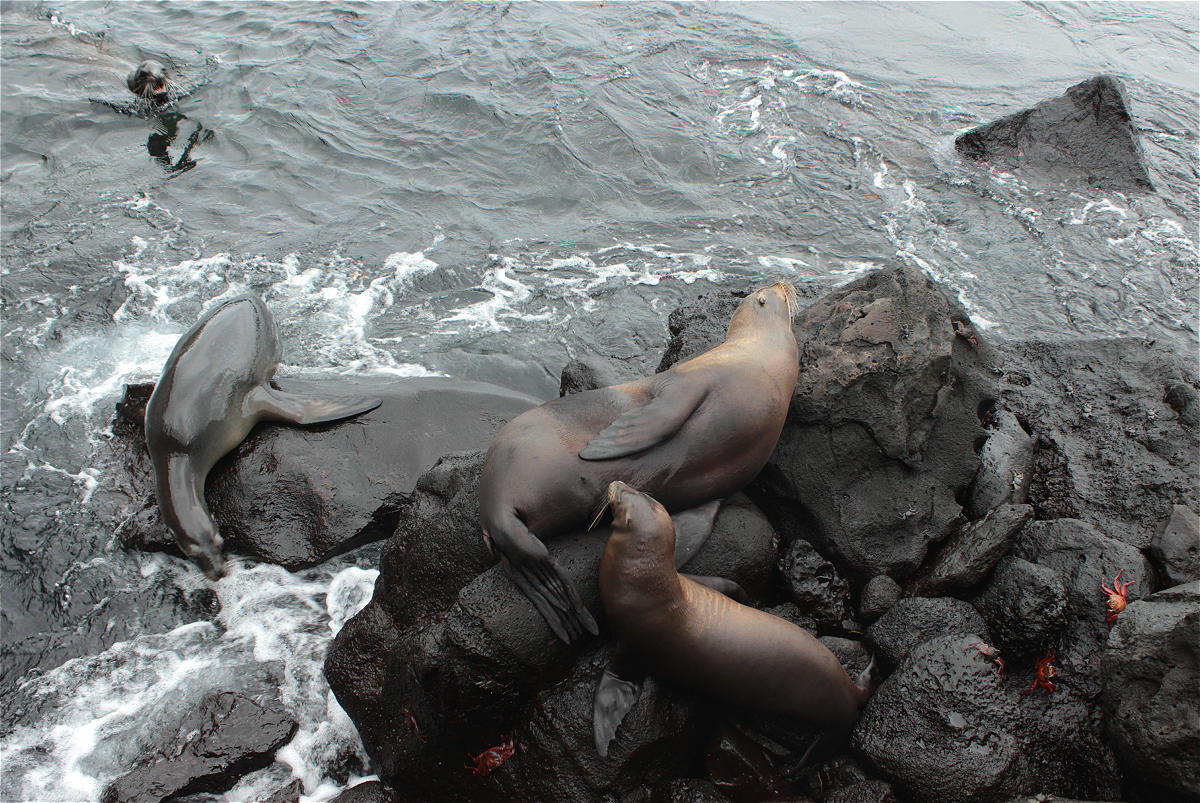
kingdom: Animalia
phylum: Chordata
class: Mammalia
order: Carnivora
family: Otariidae
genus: Zalophus
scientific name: Zalophus wollebaeki
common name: Galapagos sea lion
